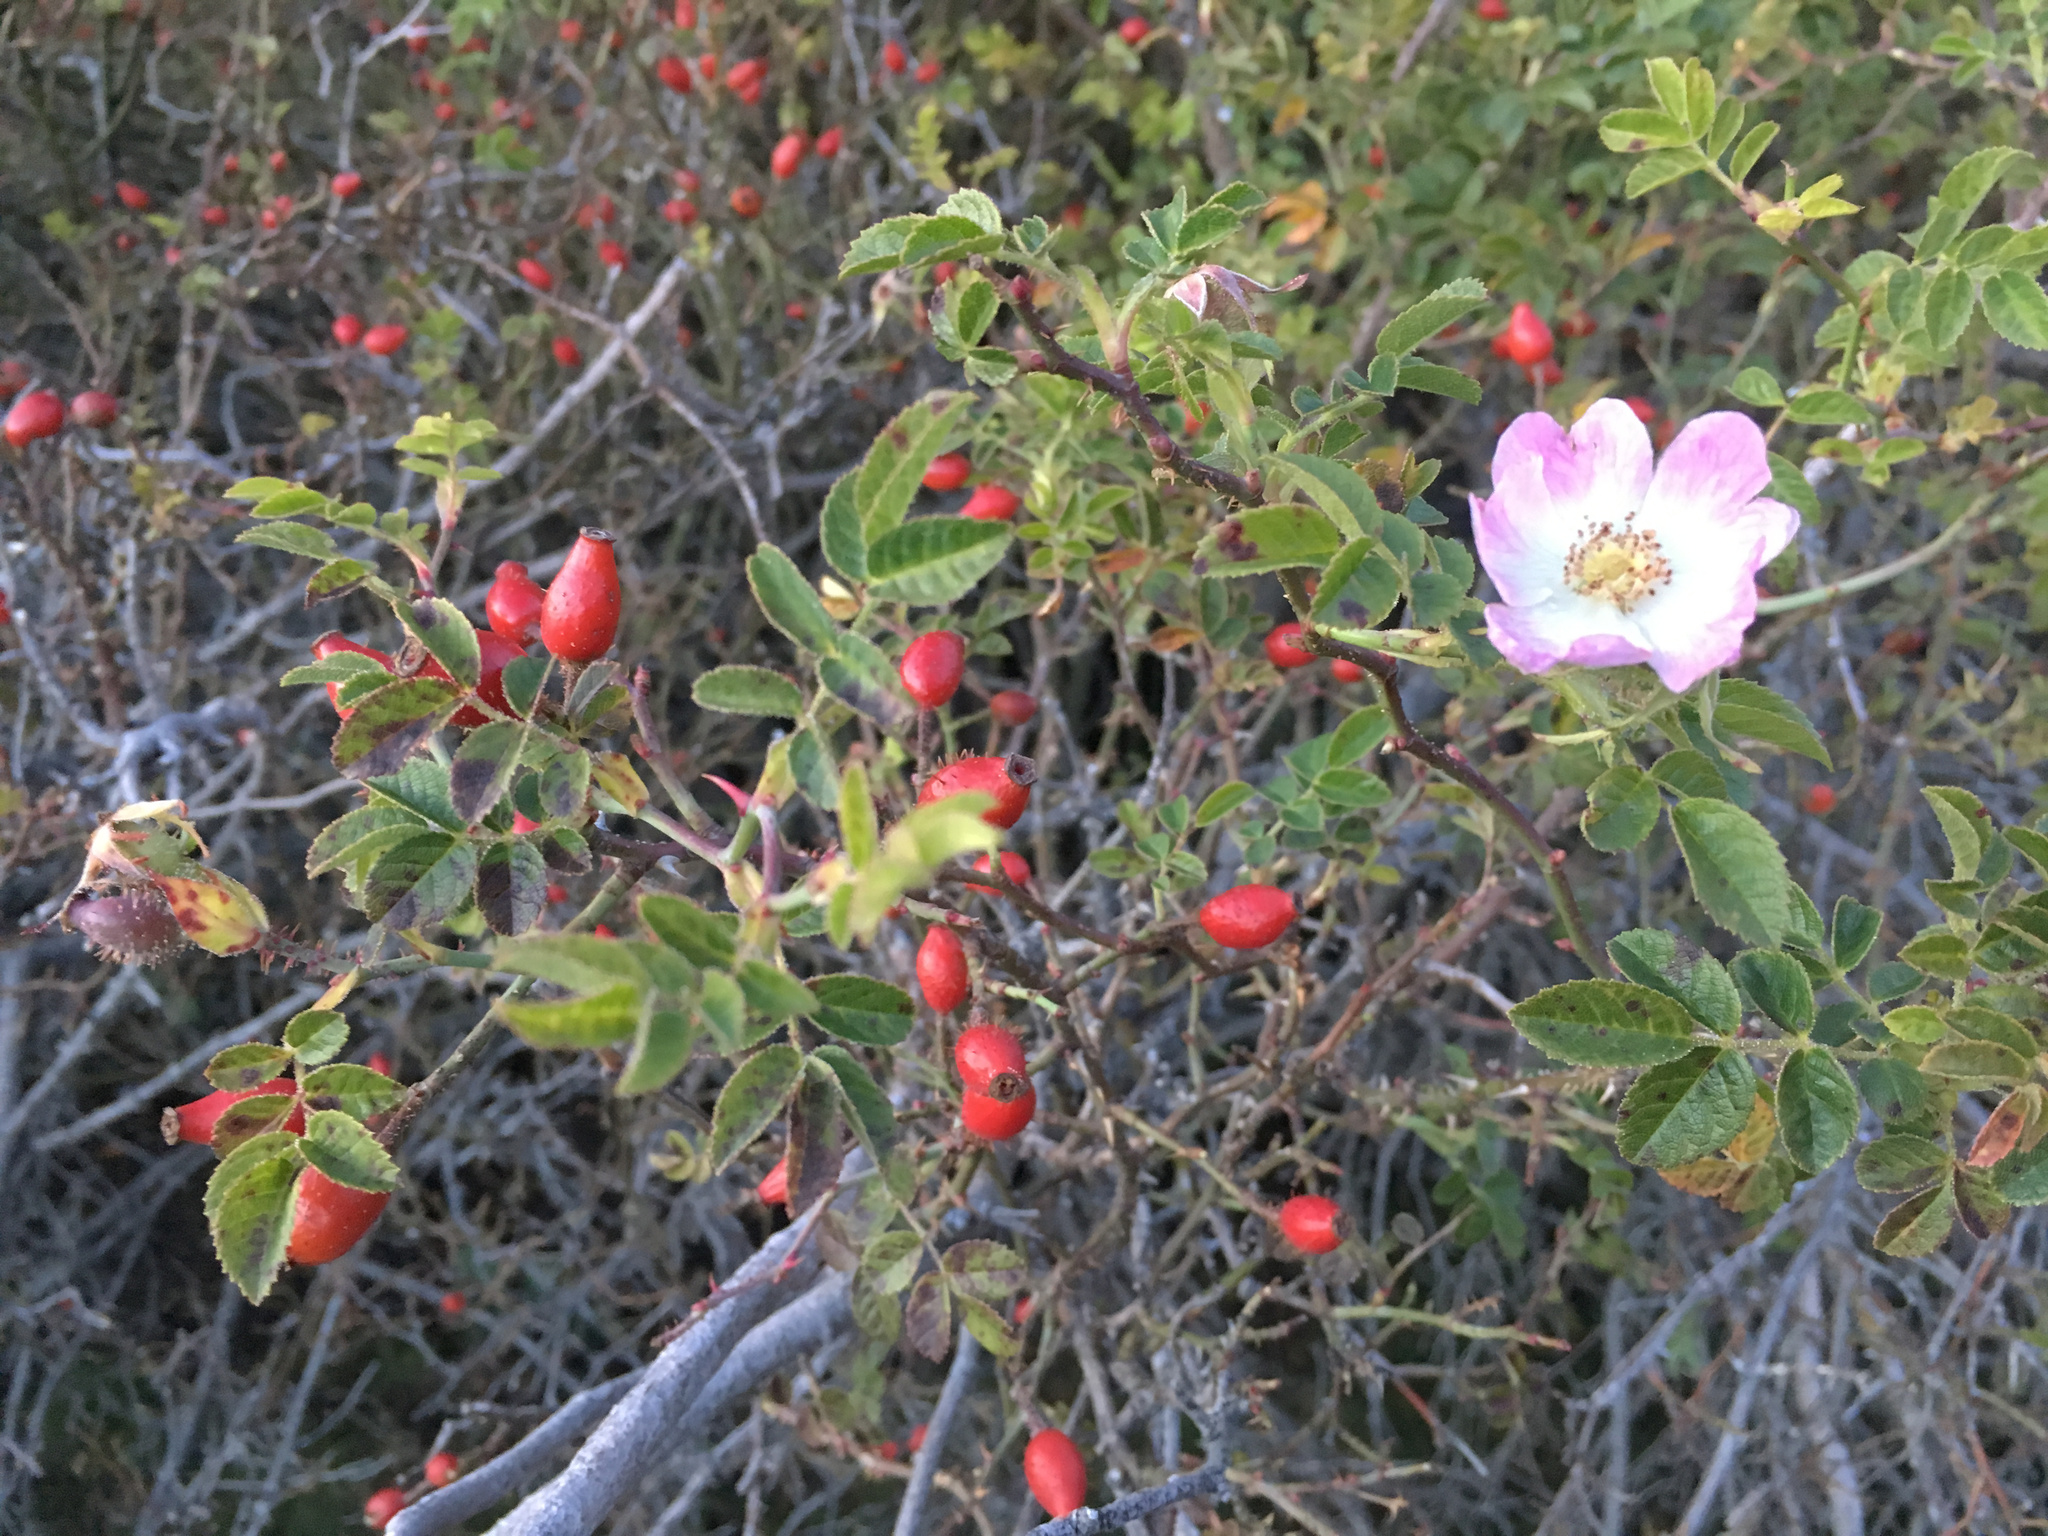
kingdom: Plantae
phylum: Tracheophyta
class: Magnoliopsida
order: Rosales
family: Rosaceae
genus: Rosa
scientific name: Rosa rubiginosa
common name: Sweet-briar
